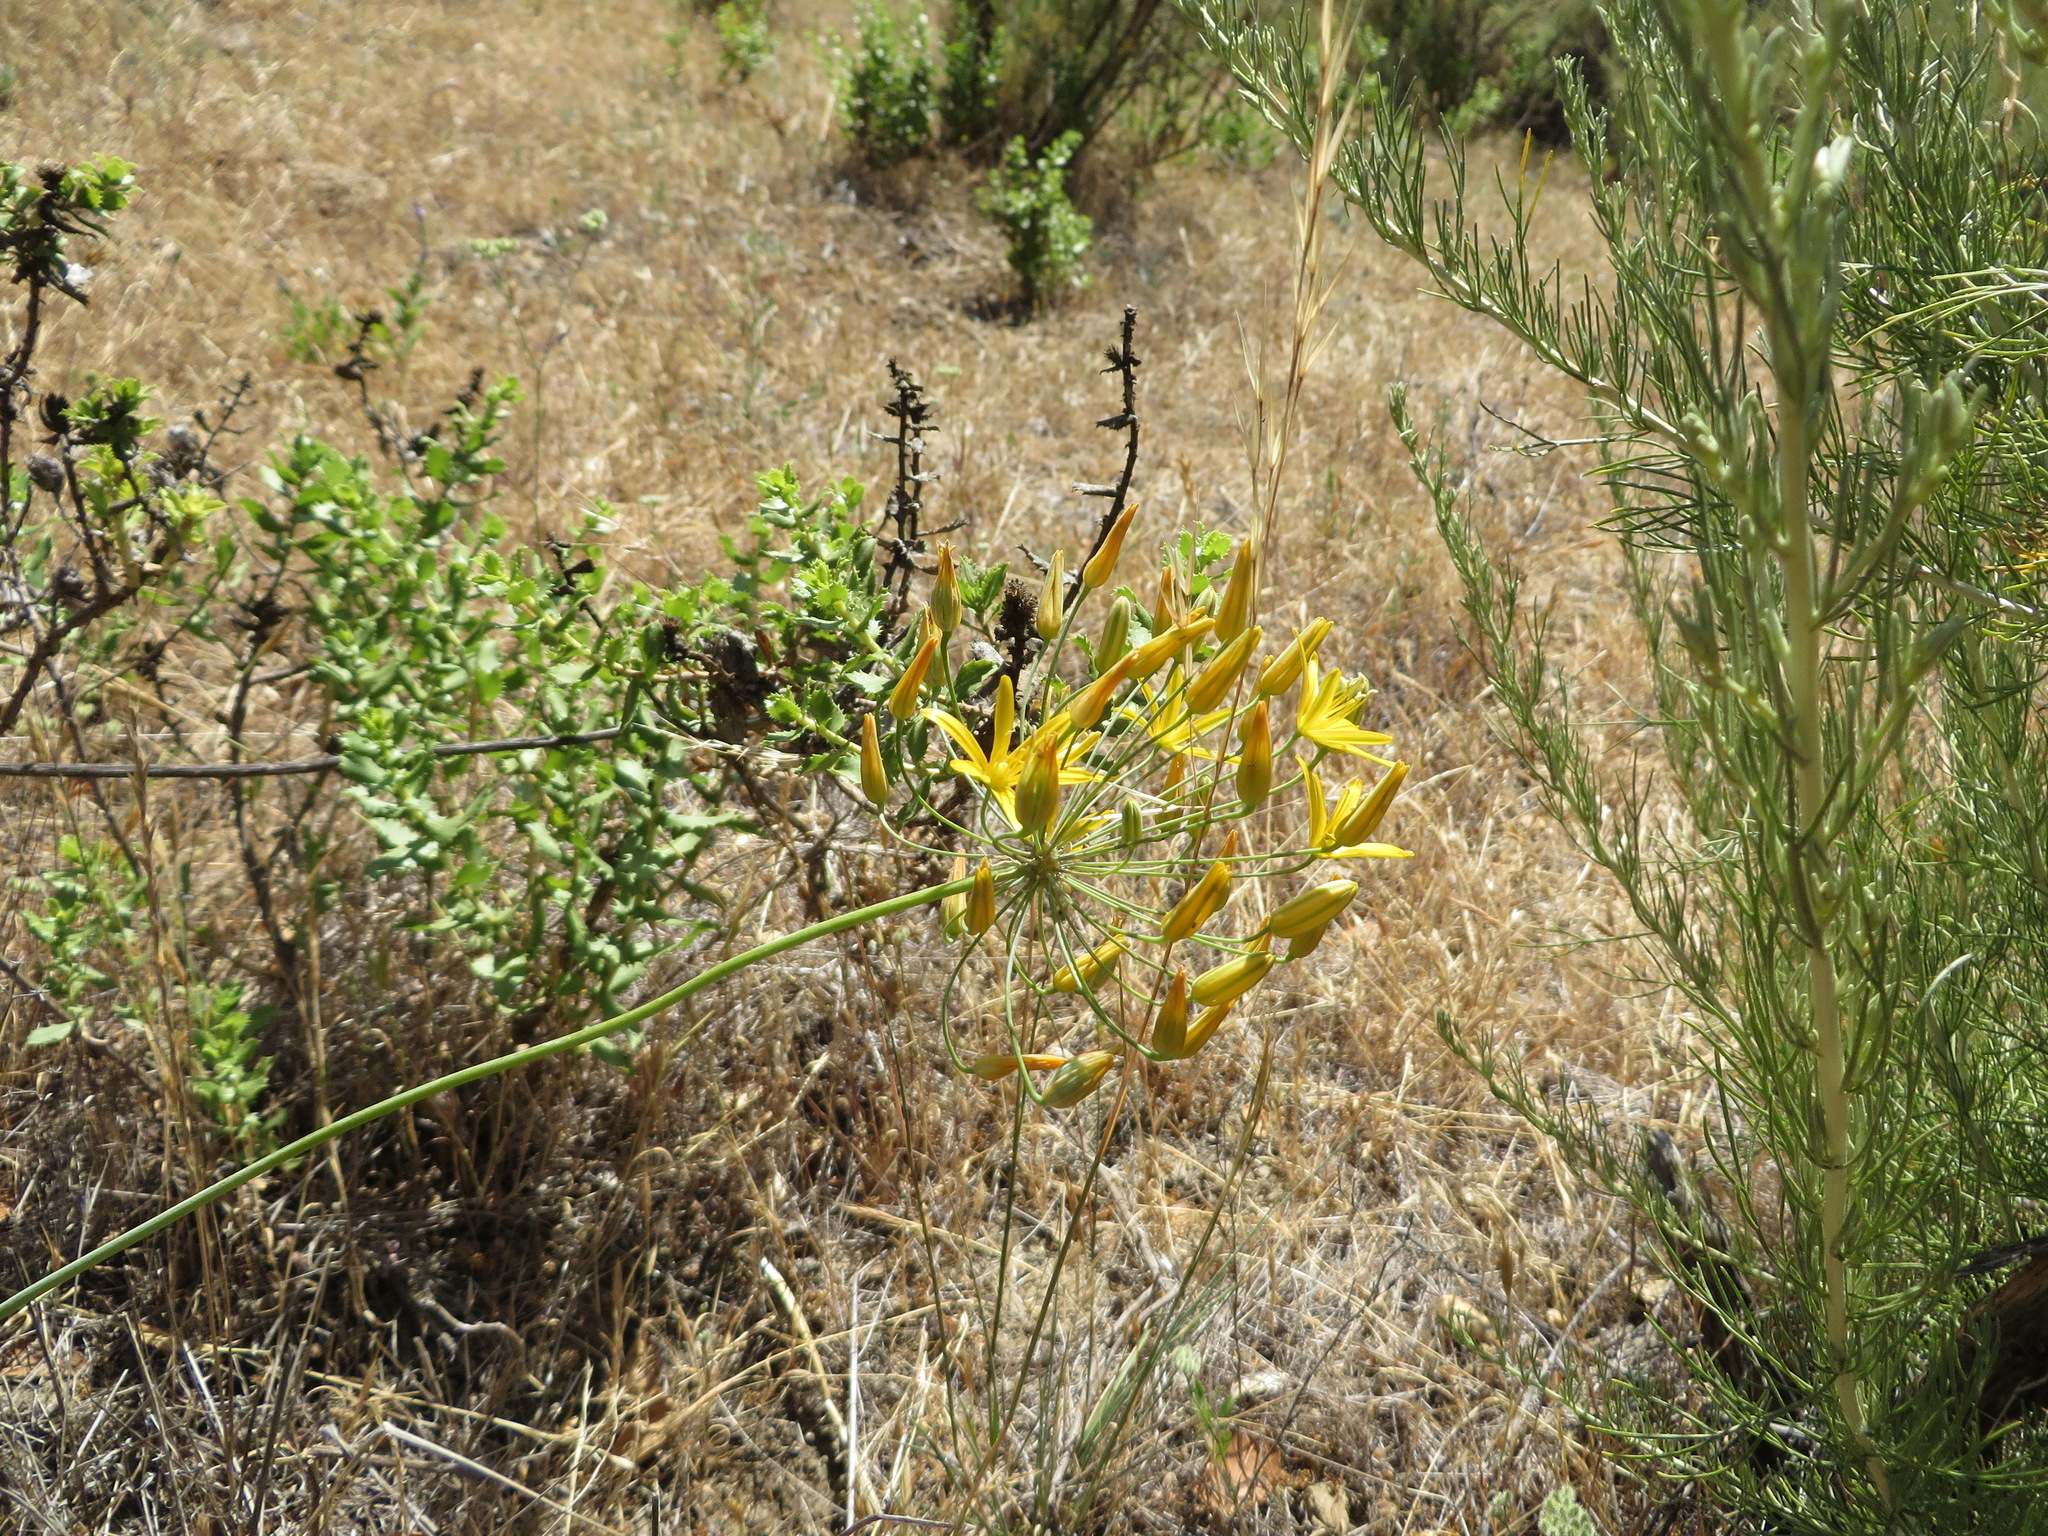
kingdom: Plantae
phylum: Tracheophyta
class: Liliopsida
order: Asparagales
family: Asparagaceae
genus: Bloomeria
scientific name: Bloomeria crocea
